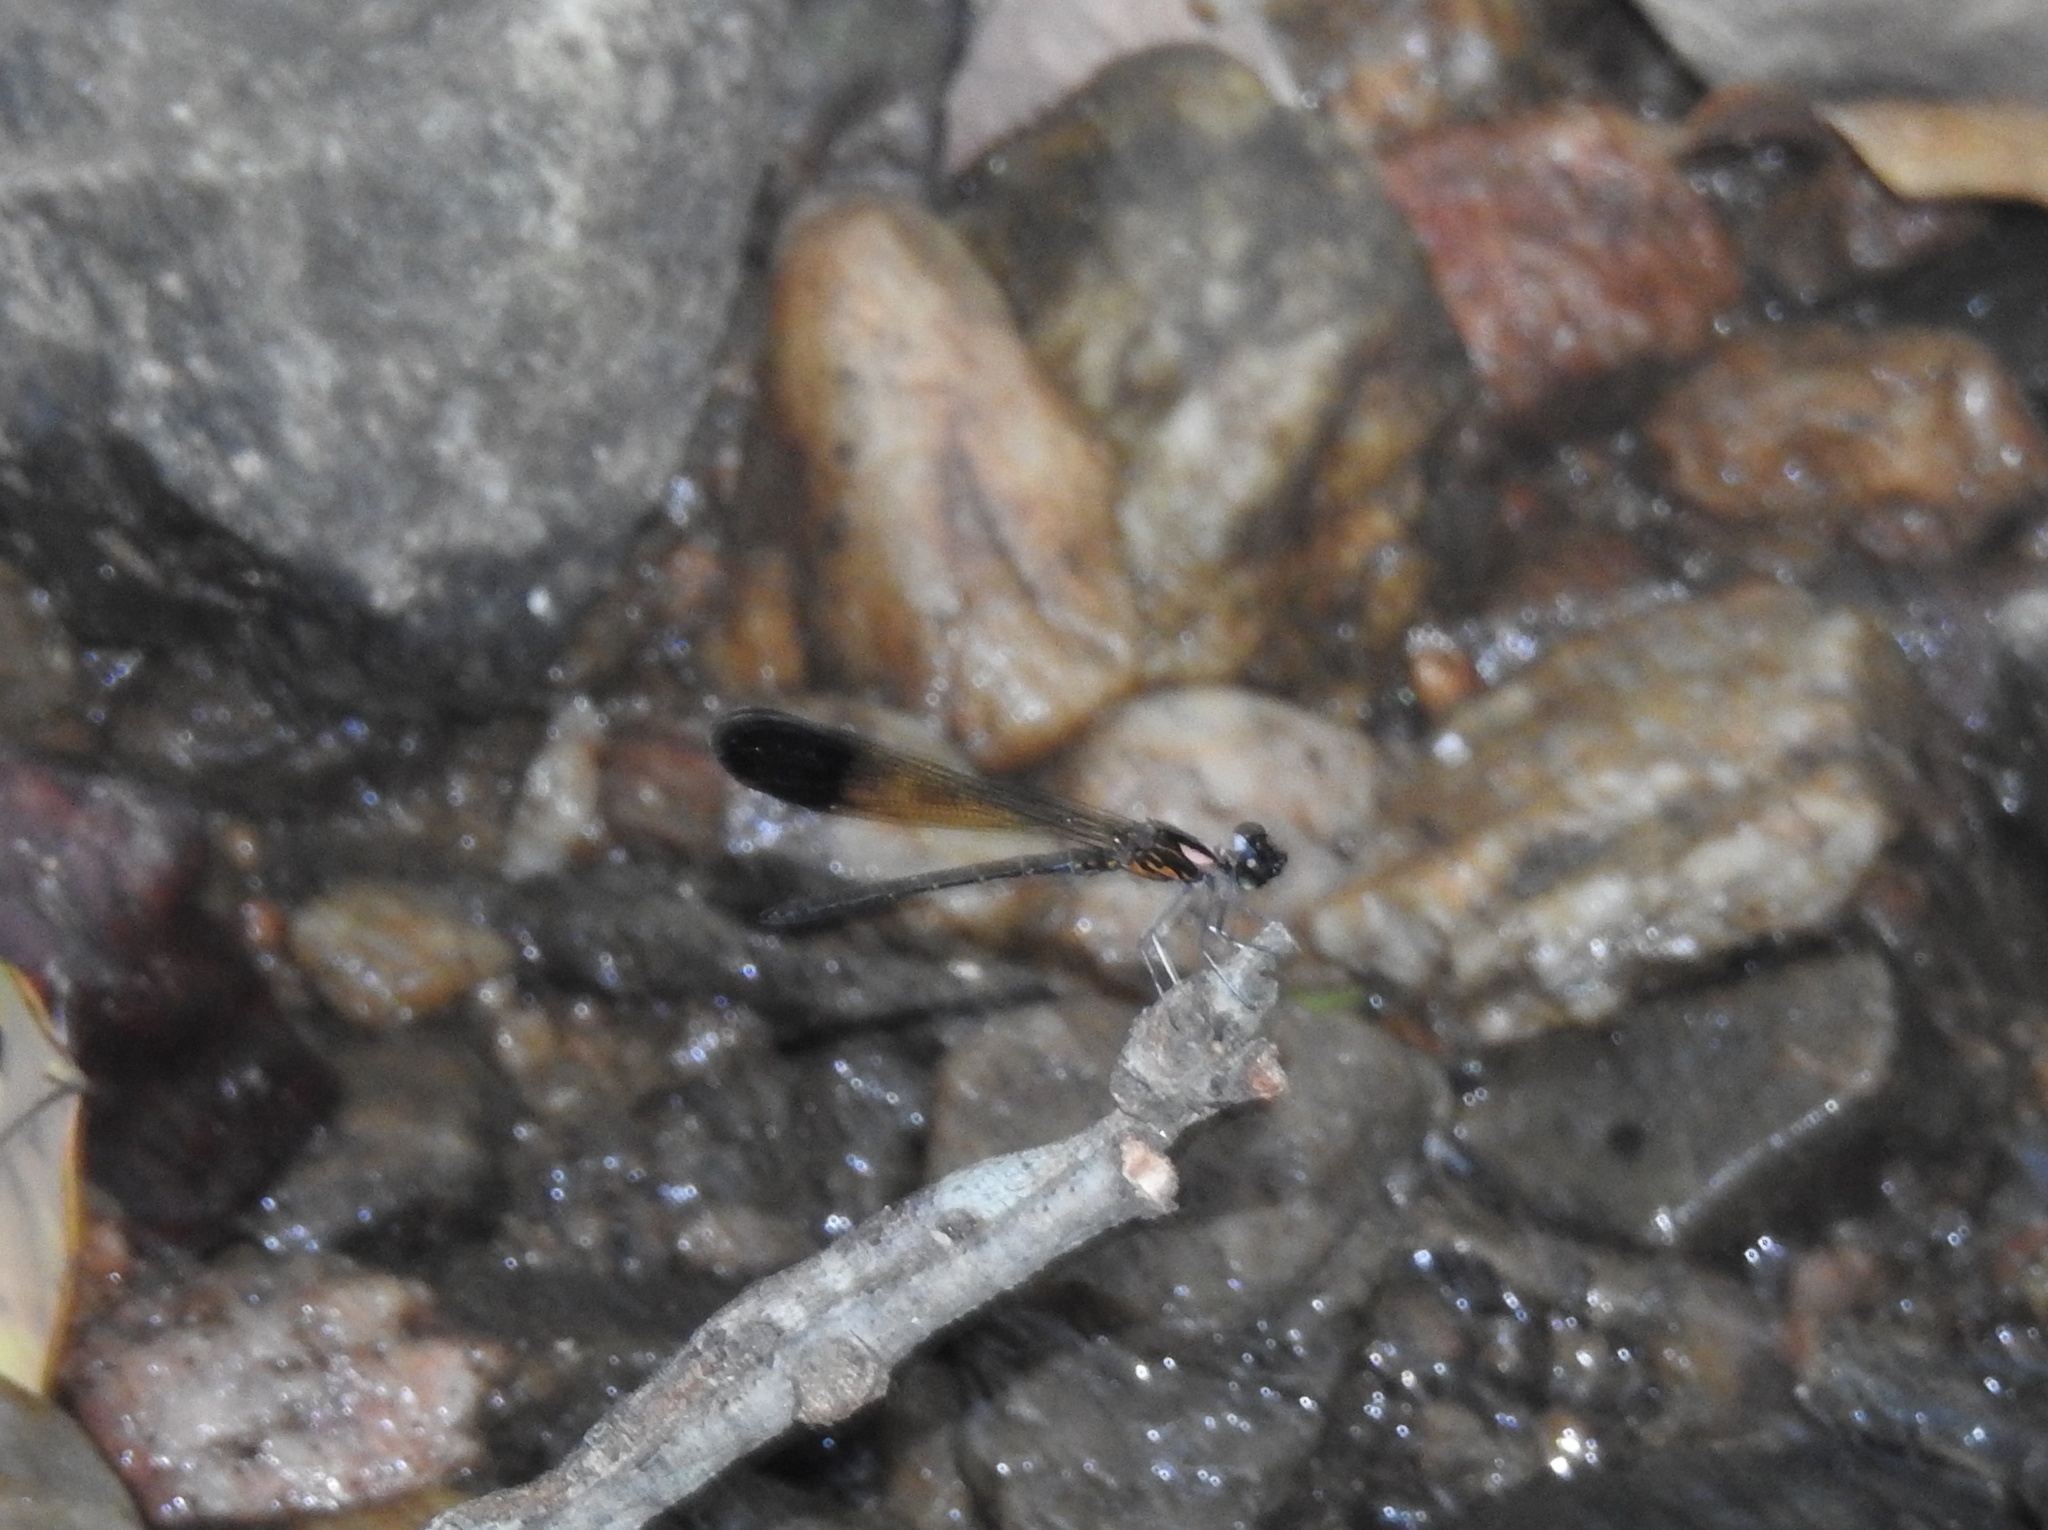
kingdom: Animalia
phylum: Arthropoda
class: Insecta
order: Odonata
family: Chlorocyphidae
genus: Heliocypha
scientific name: Heliocypha bisignata
